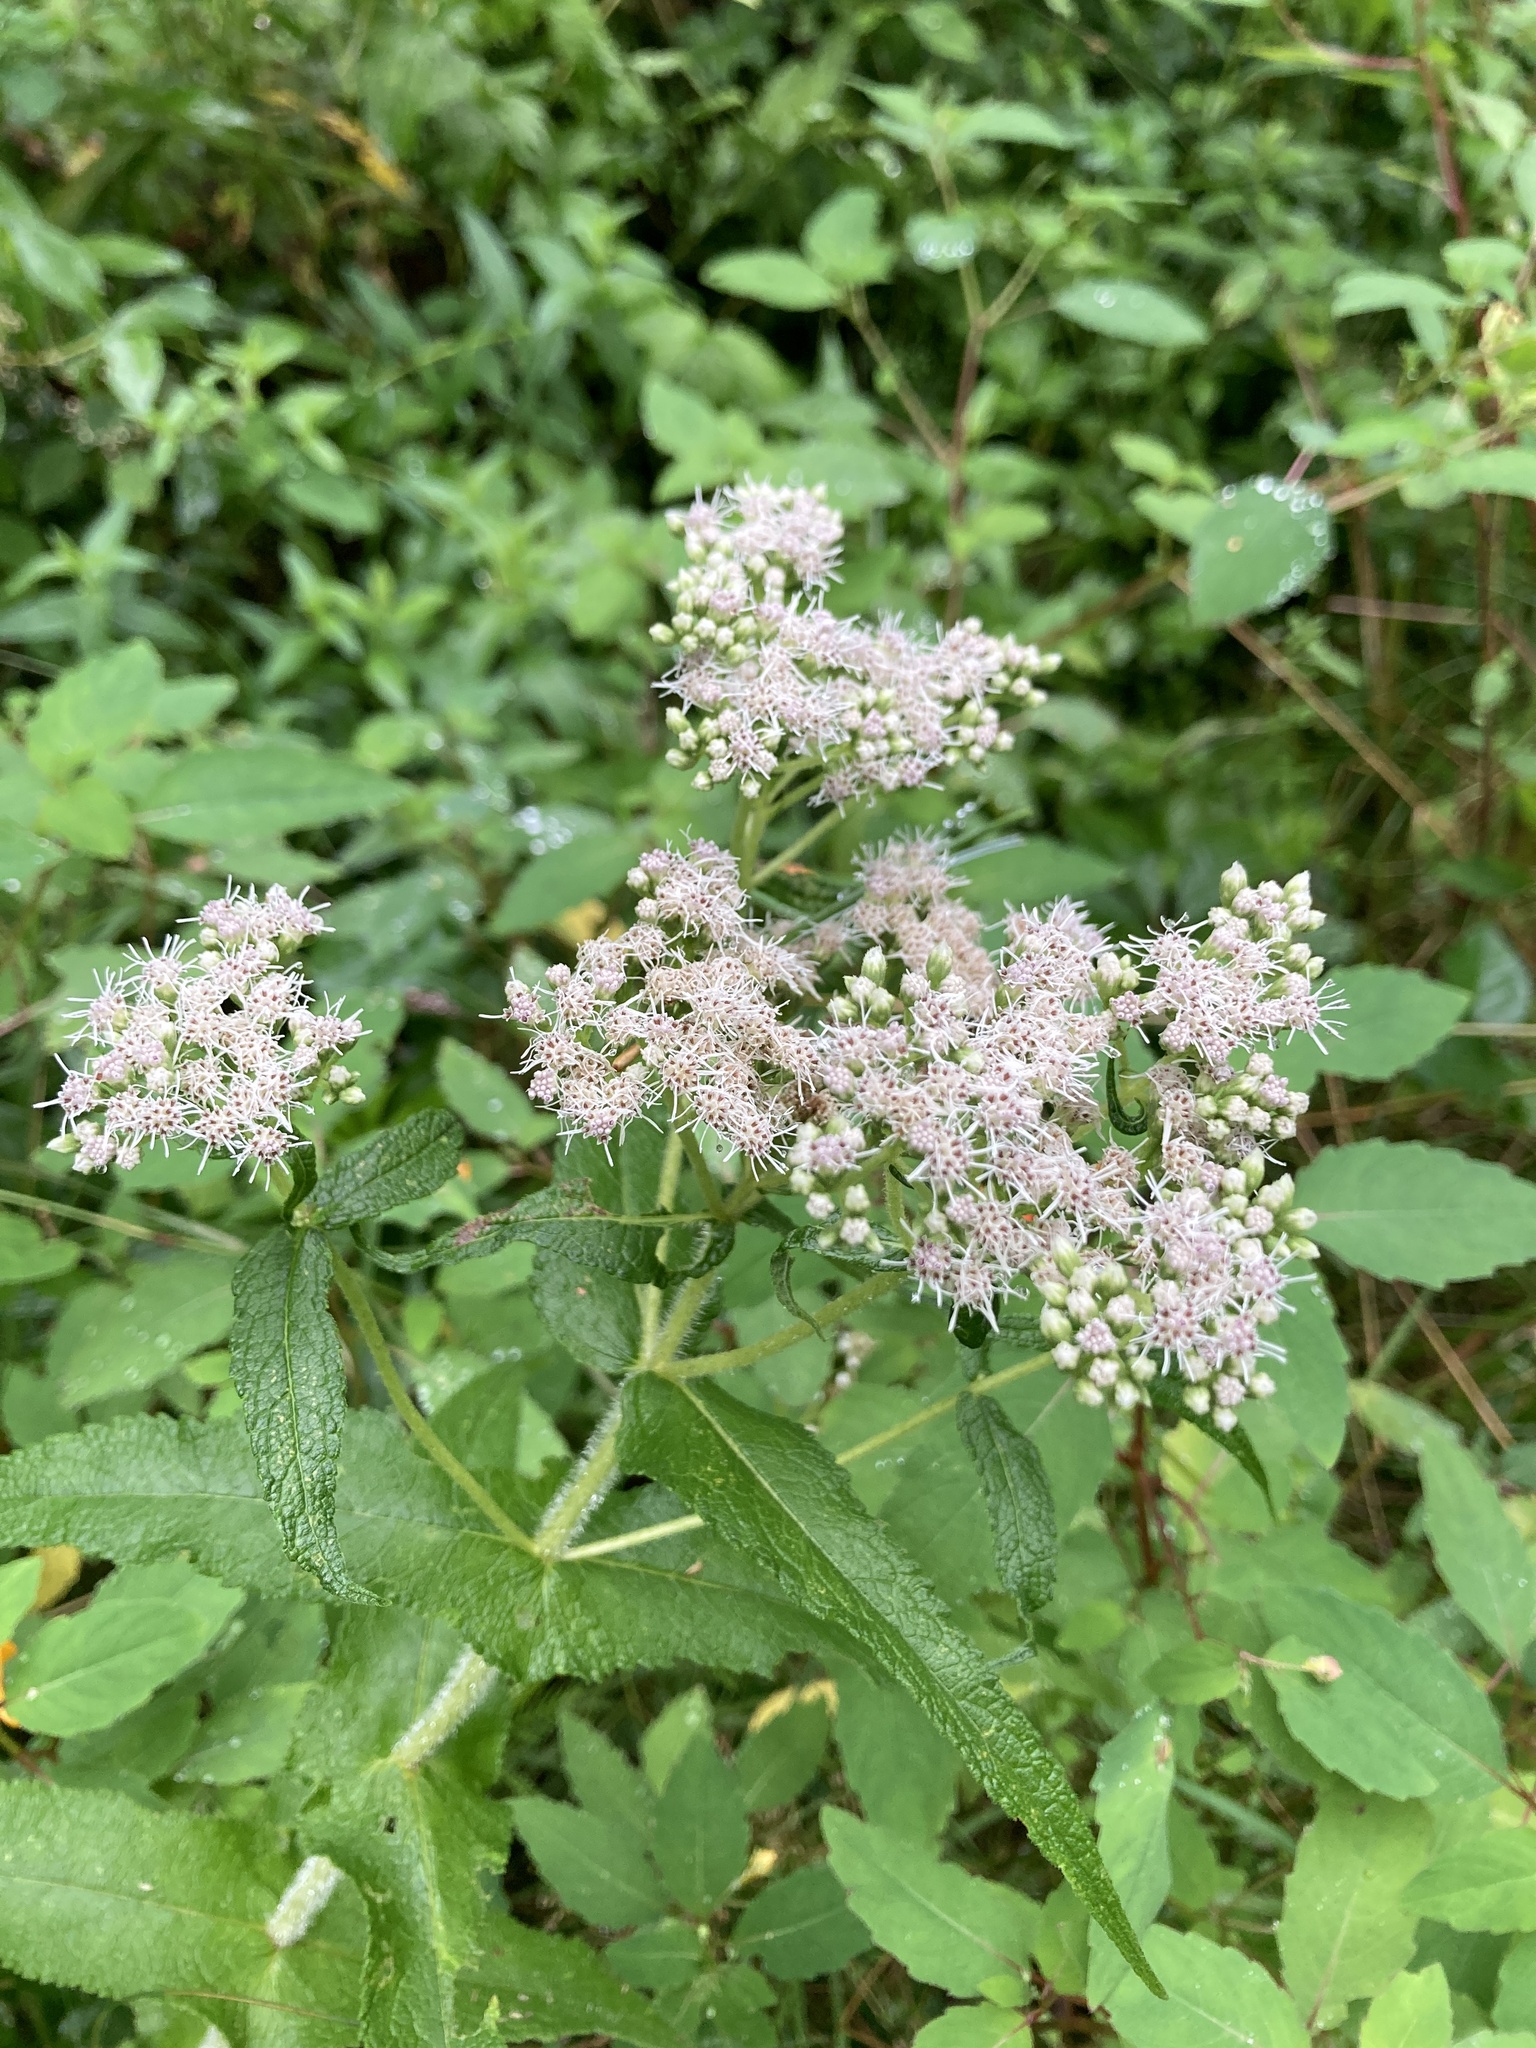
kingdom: Plantae
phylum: Tracheophyta
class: Magnoliopsida
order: Asterales
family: Asteraceae
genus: Eupatorium
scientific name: Eupatorium perfoliatum
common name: Boneset
